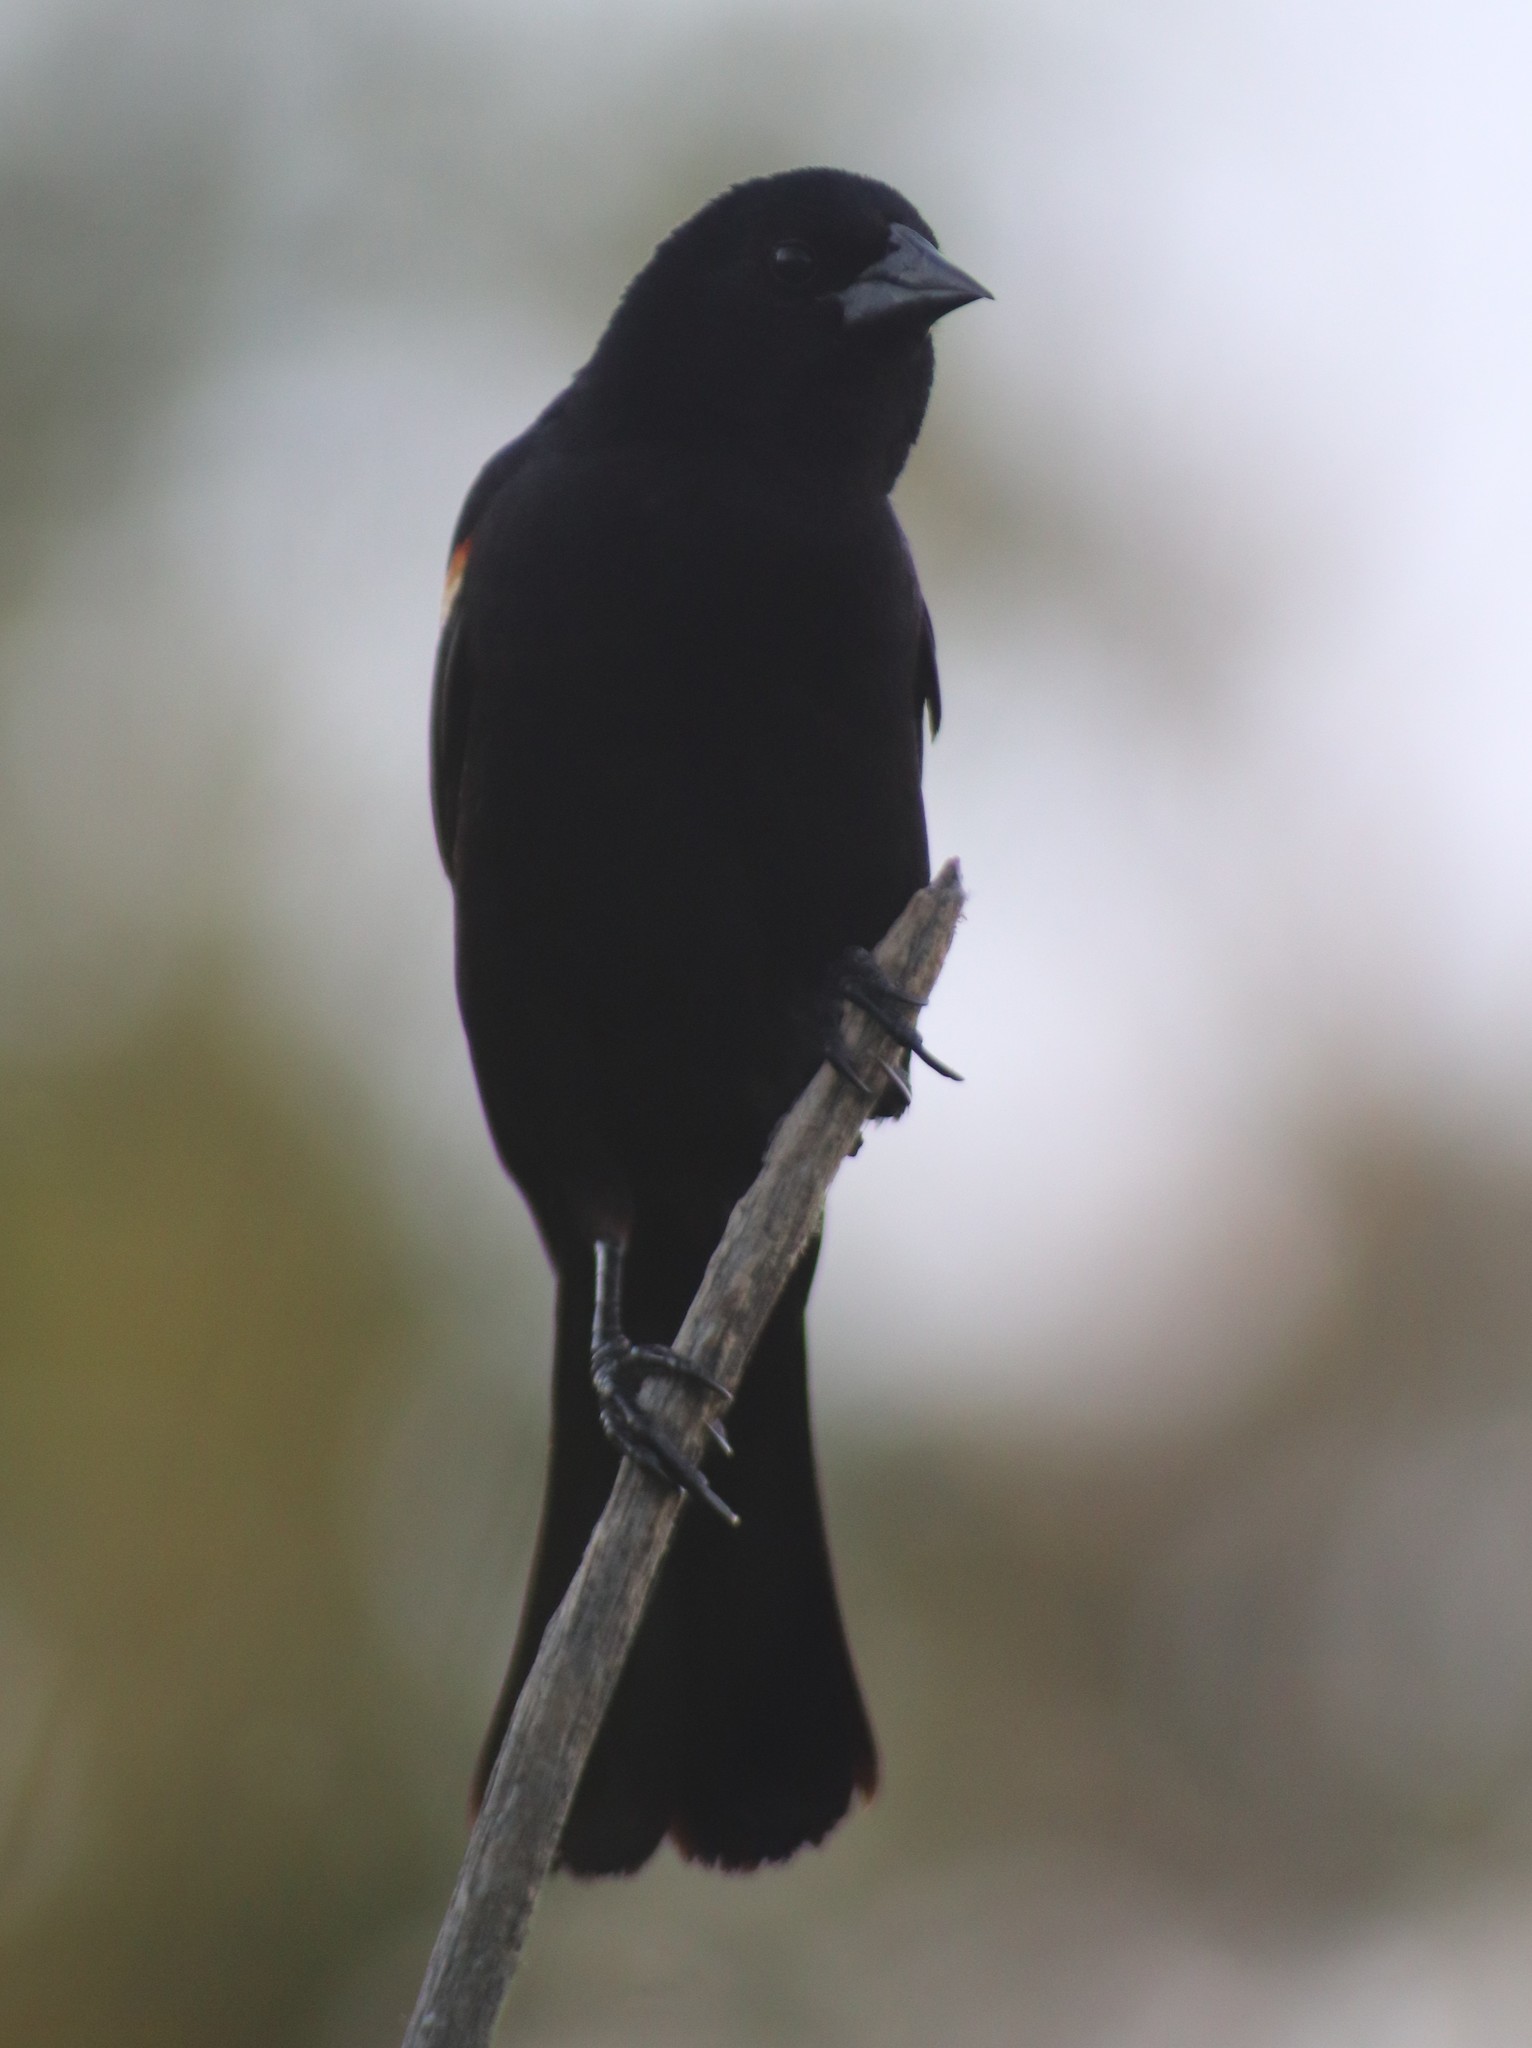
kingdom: Animalia
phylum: Chordata
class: Aves
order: Passeriformes
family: Icteridae
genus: Agelaius
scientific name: Agelaius phoeniceus
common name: Red-winged blackbird
